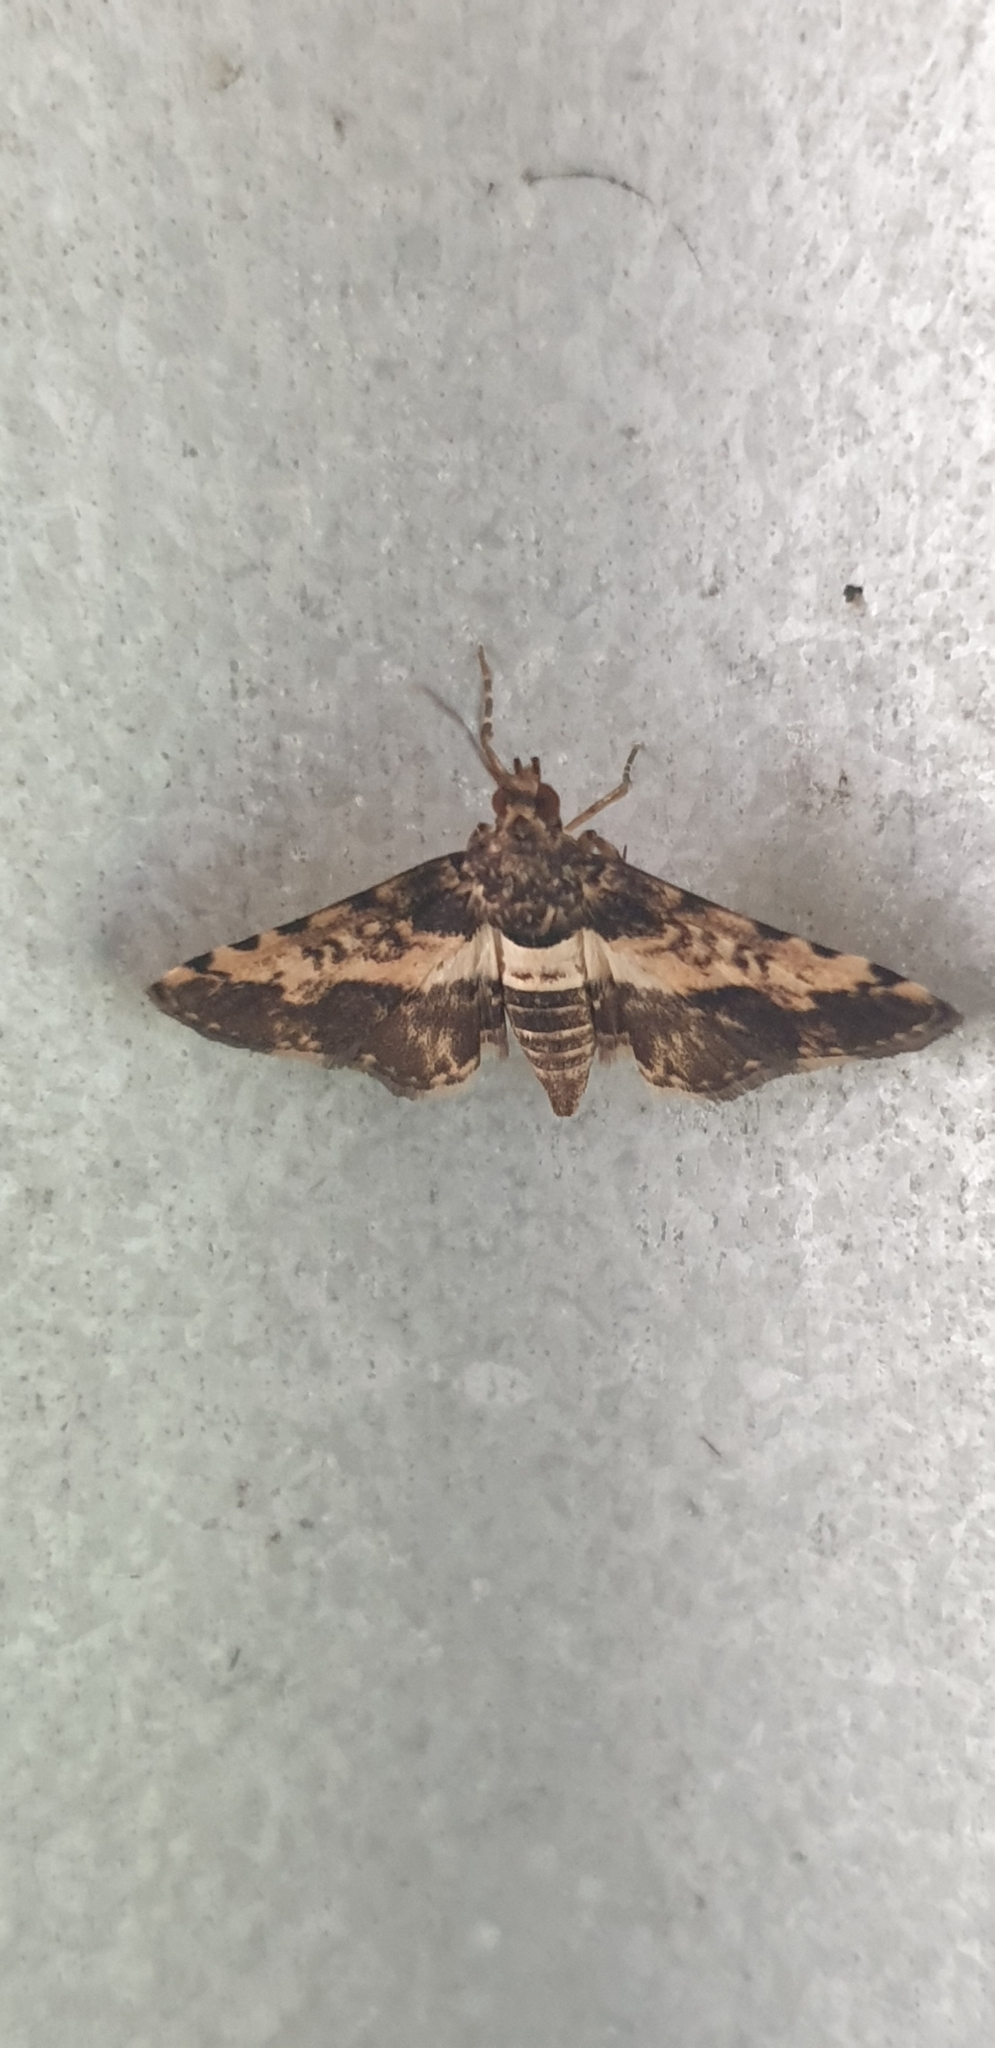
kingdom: Animalia
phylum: Arthropoda
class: Insecta
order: Lepidoptera
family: Crambidae
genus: Nacoleia
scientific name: Nacoleia amphicedalis
